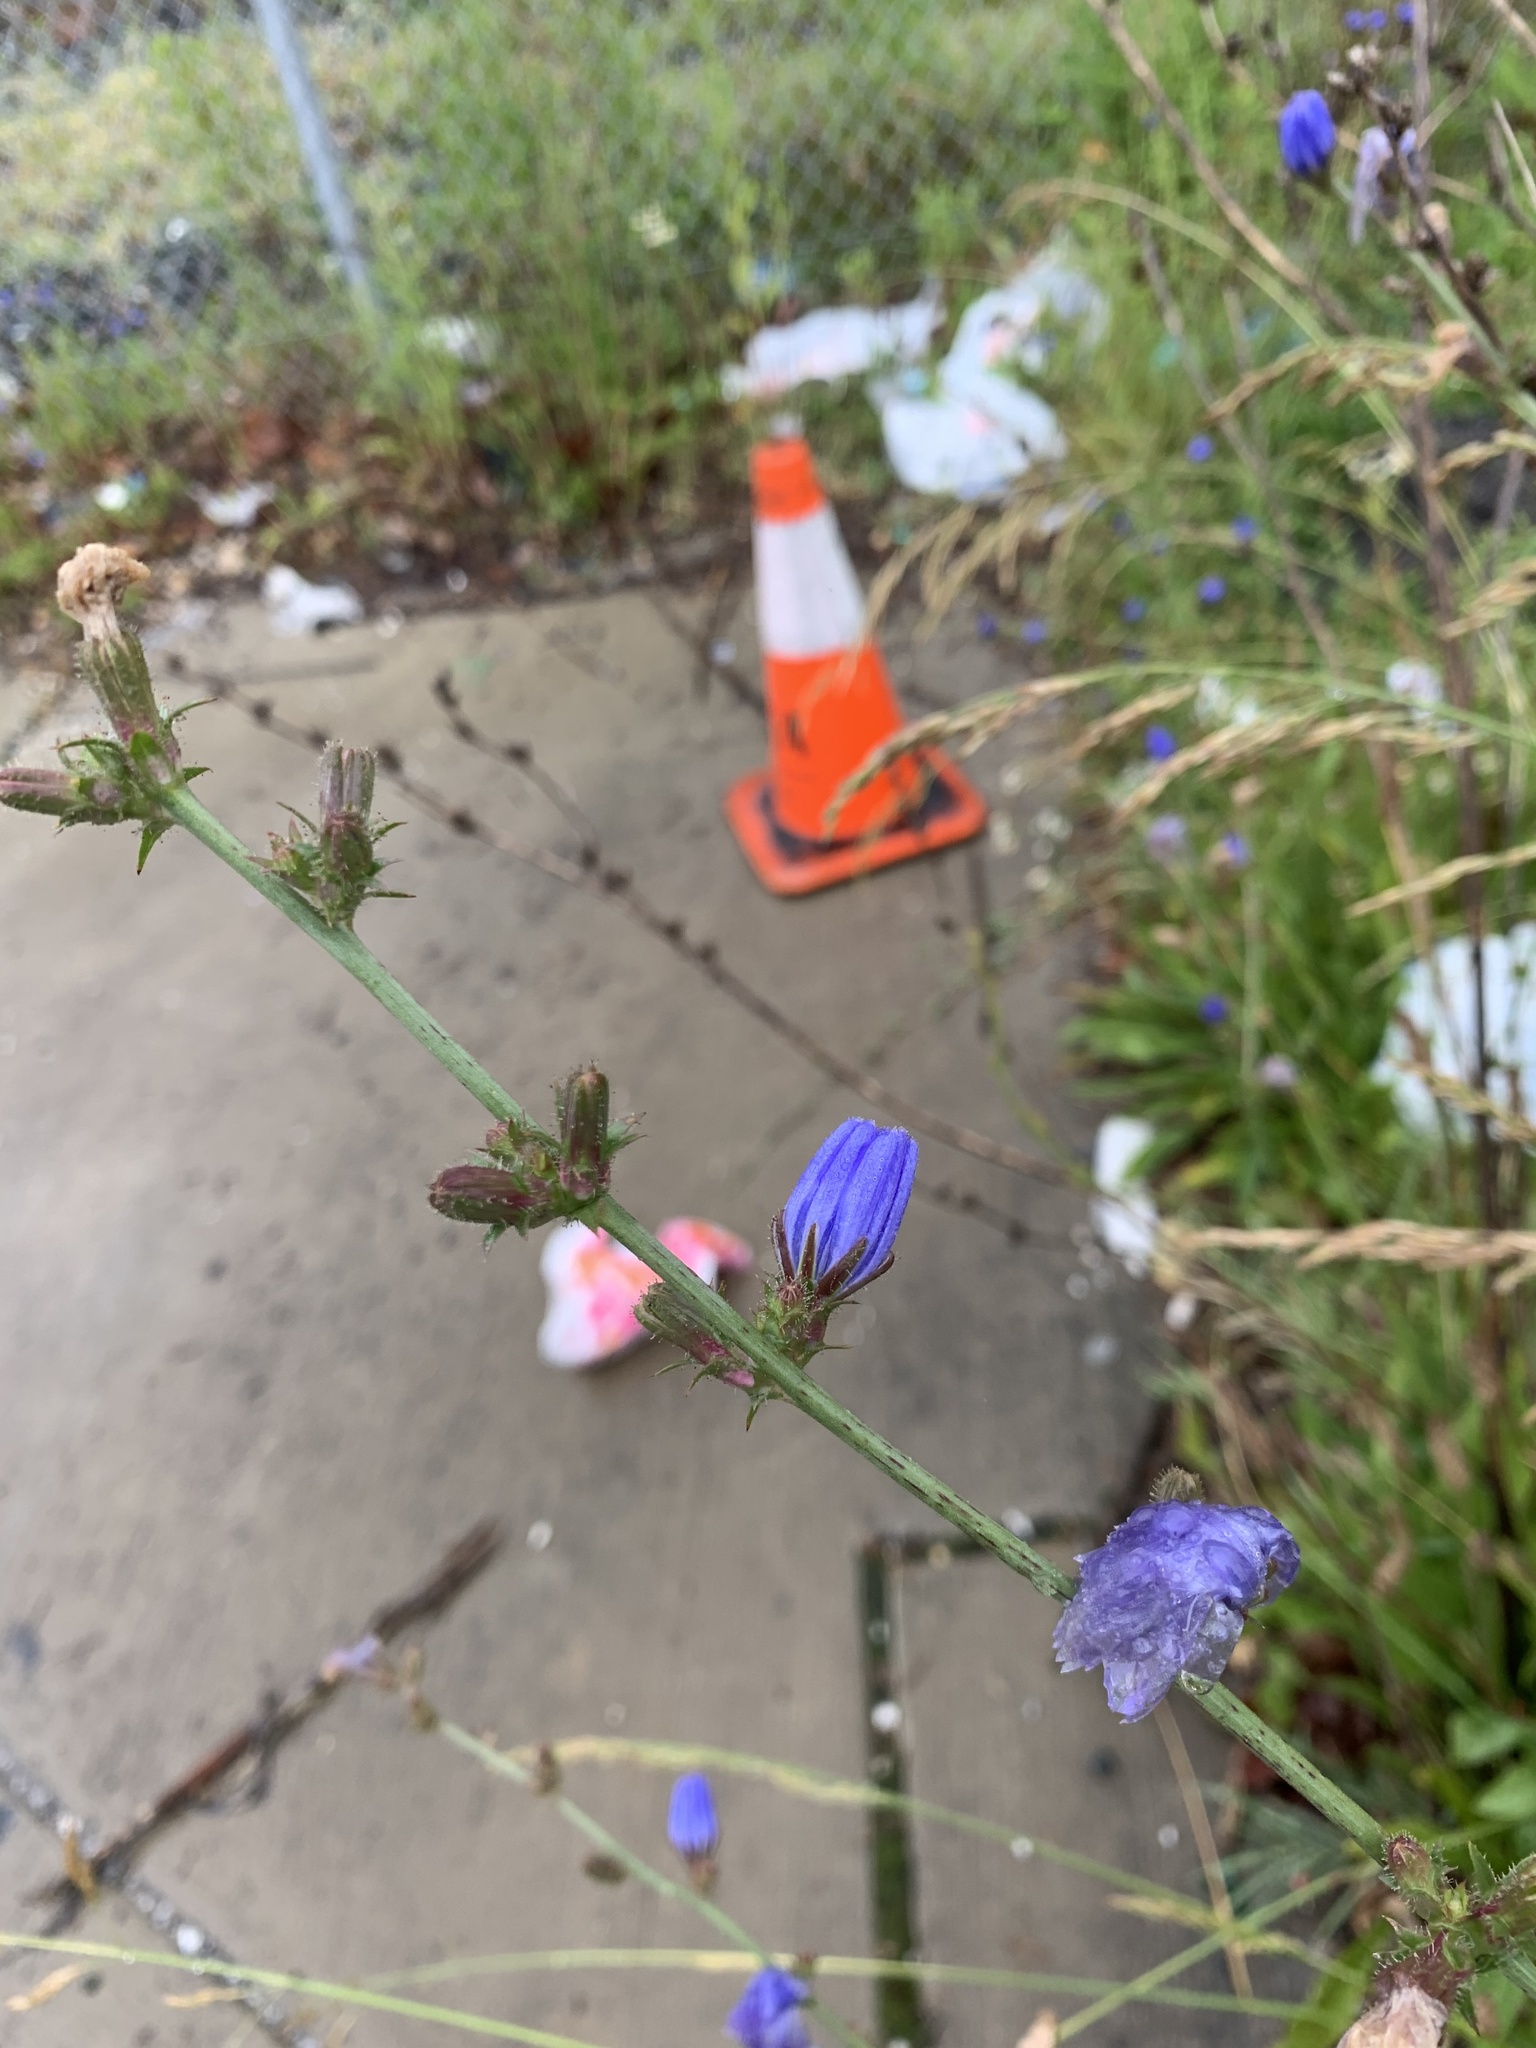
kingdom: Plantae
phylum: Tracheophyta
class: Magnoliopsida
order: Asterales
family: Asteraceae
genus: Cichorium
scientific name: Cichorium intybus
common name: Chicory
